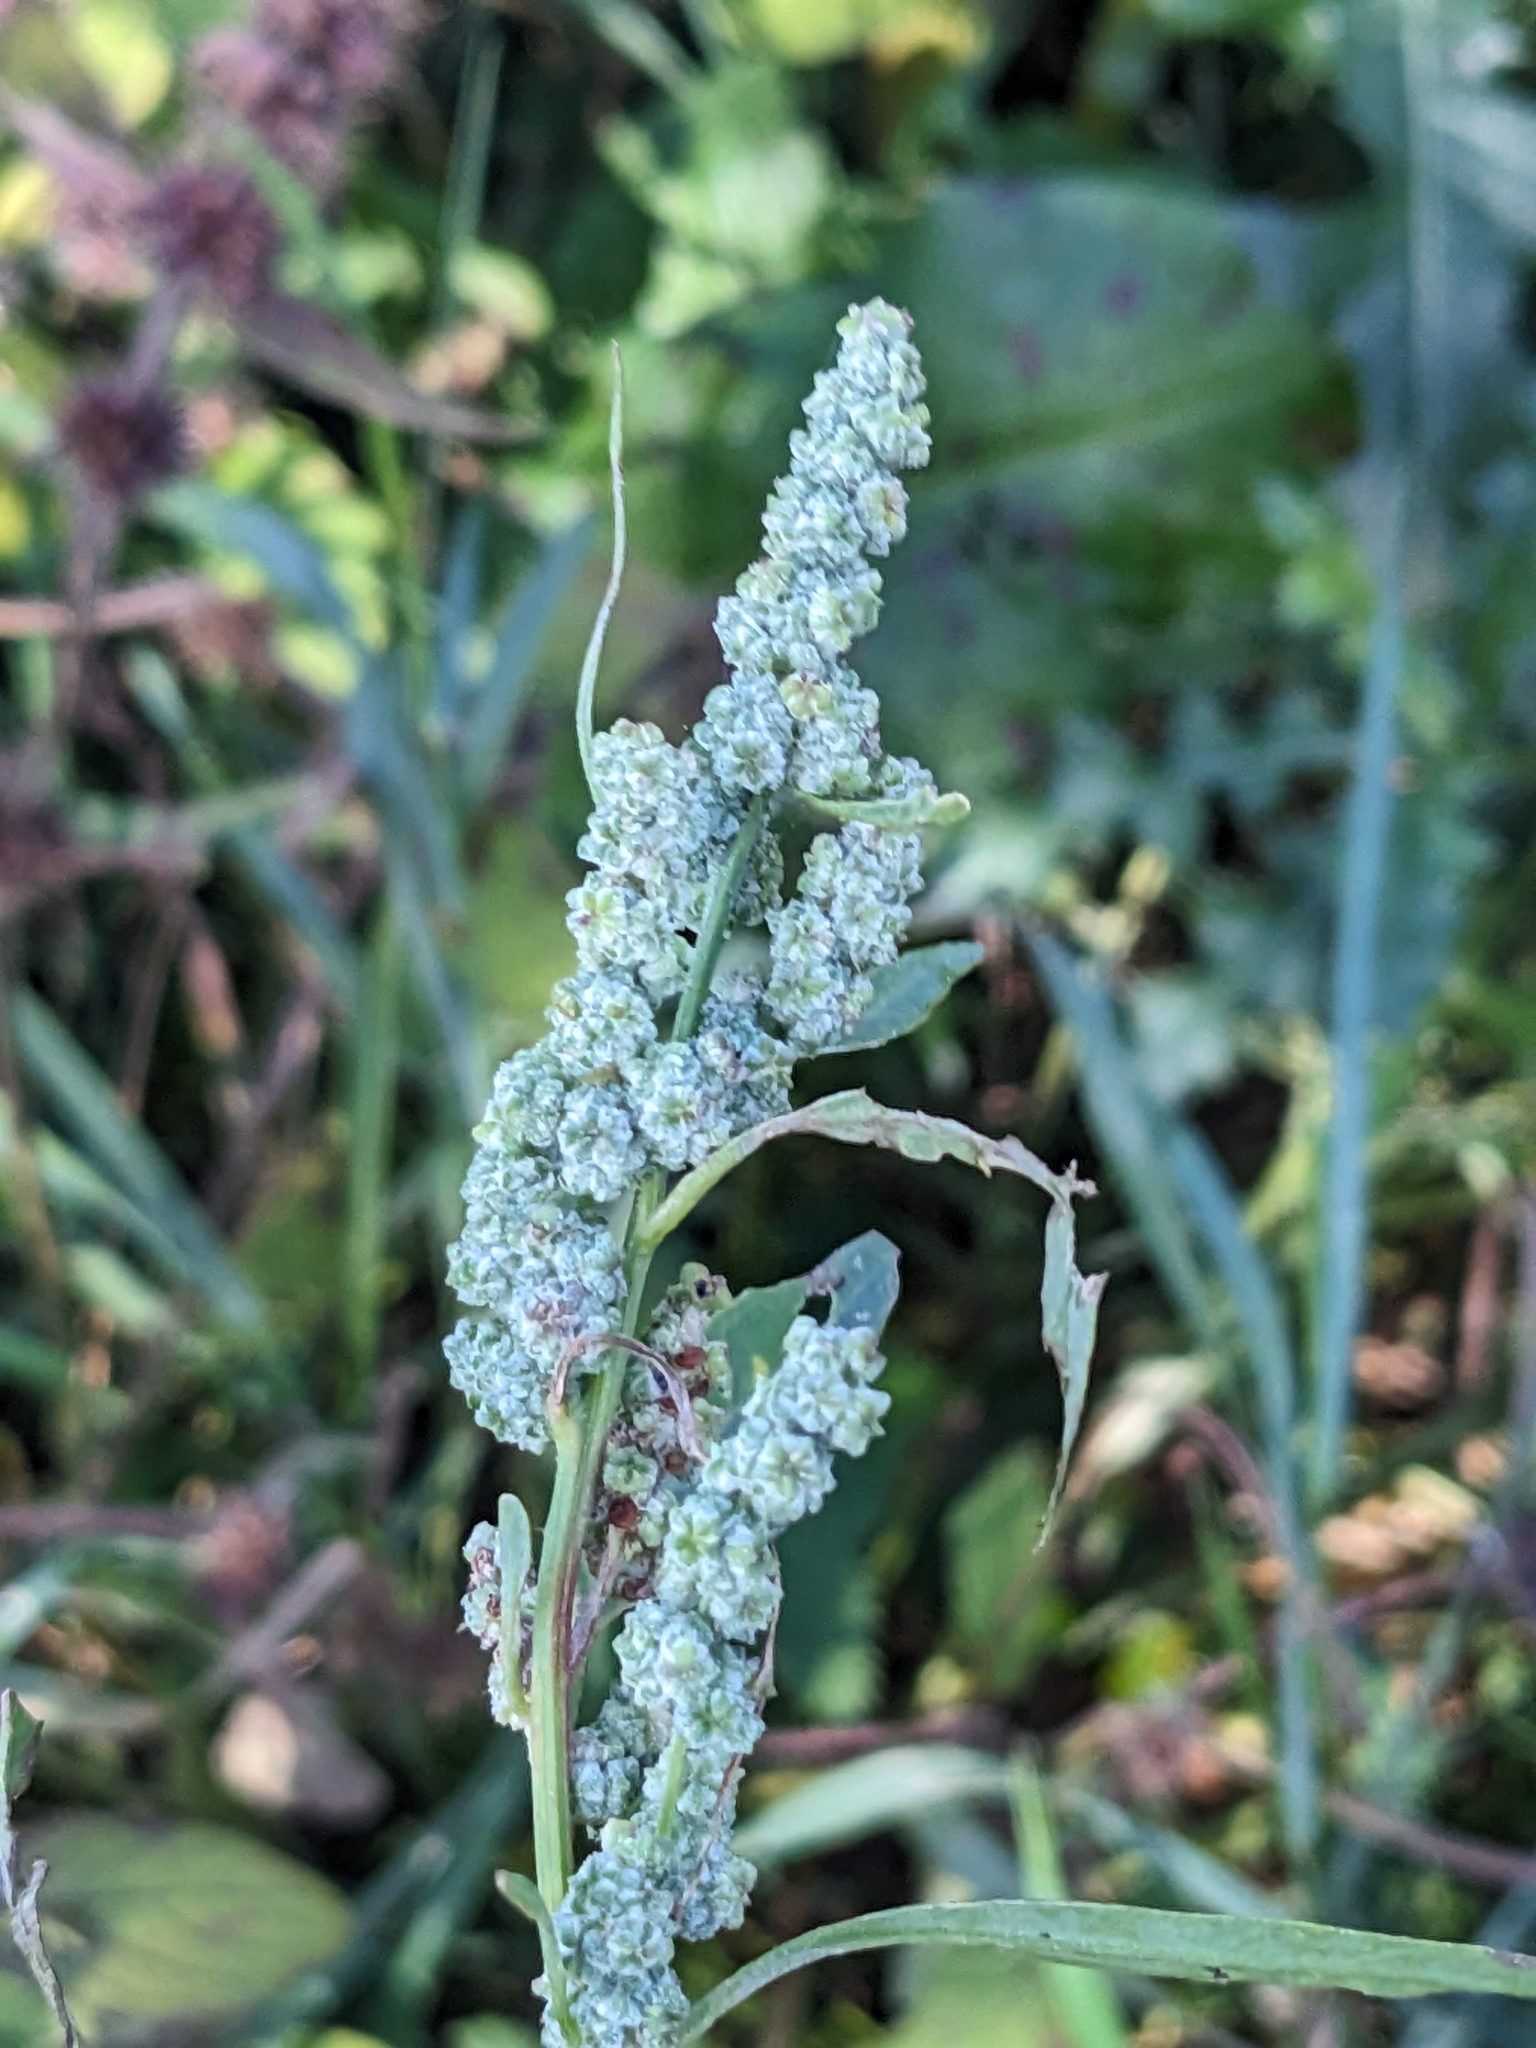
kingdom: Plantae
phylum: Tracheophyta
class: Magnoliopsida
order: Caryophyllales
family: Amaranthaceae
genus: Chenopodium
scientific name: Chenopodium album
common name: Fat-hen
